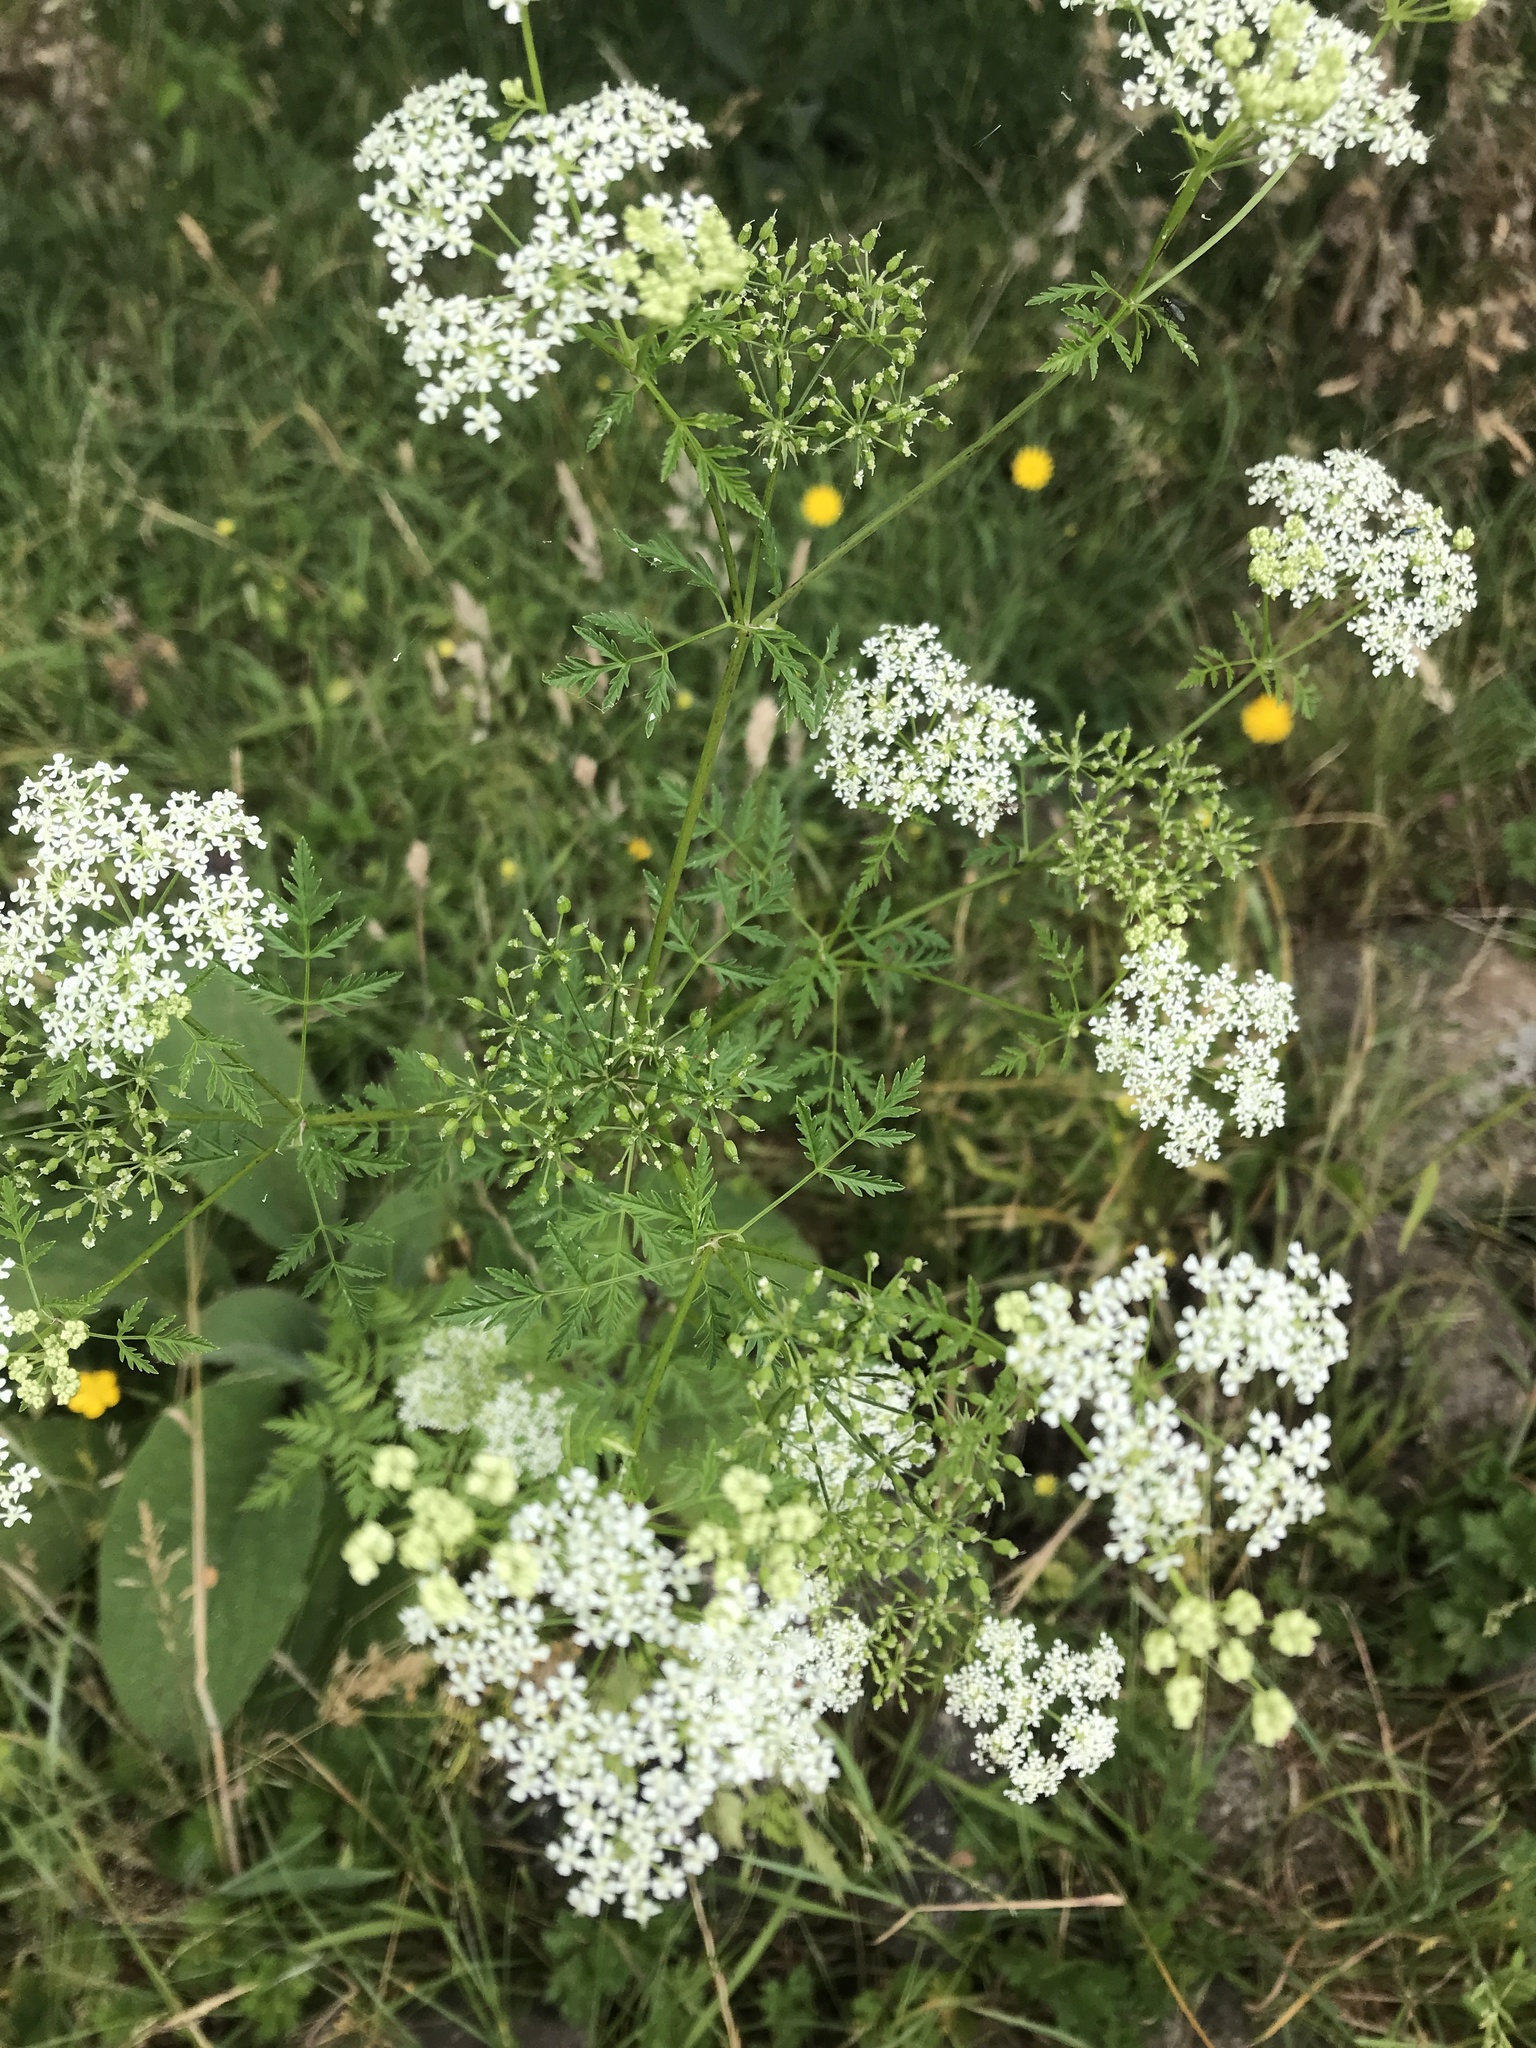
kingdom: Plantae
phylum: Tracheophyta
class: Magnoliopsida
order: Apiales
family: Apiaceae
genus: Conium
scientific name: Conium maculatum
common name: Hemlock
